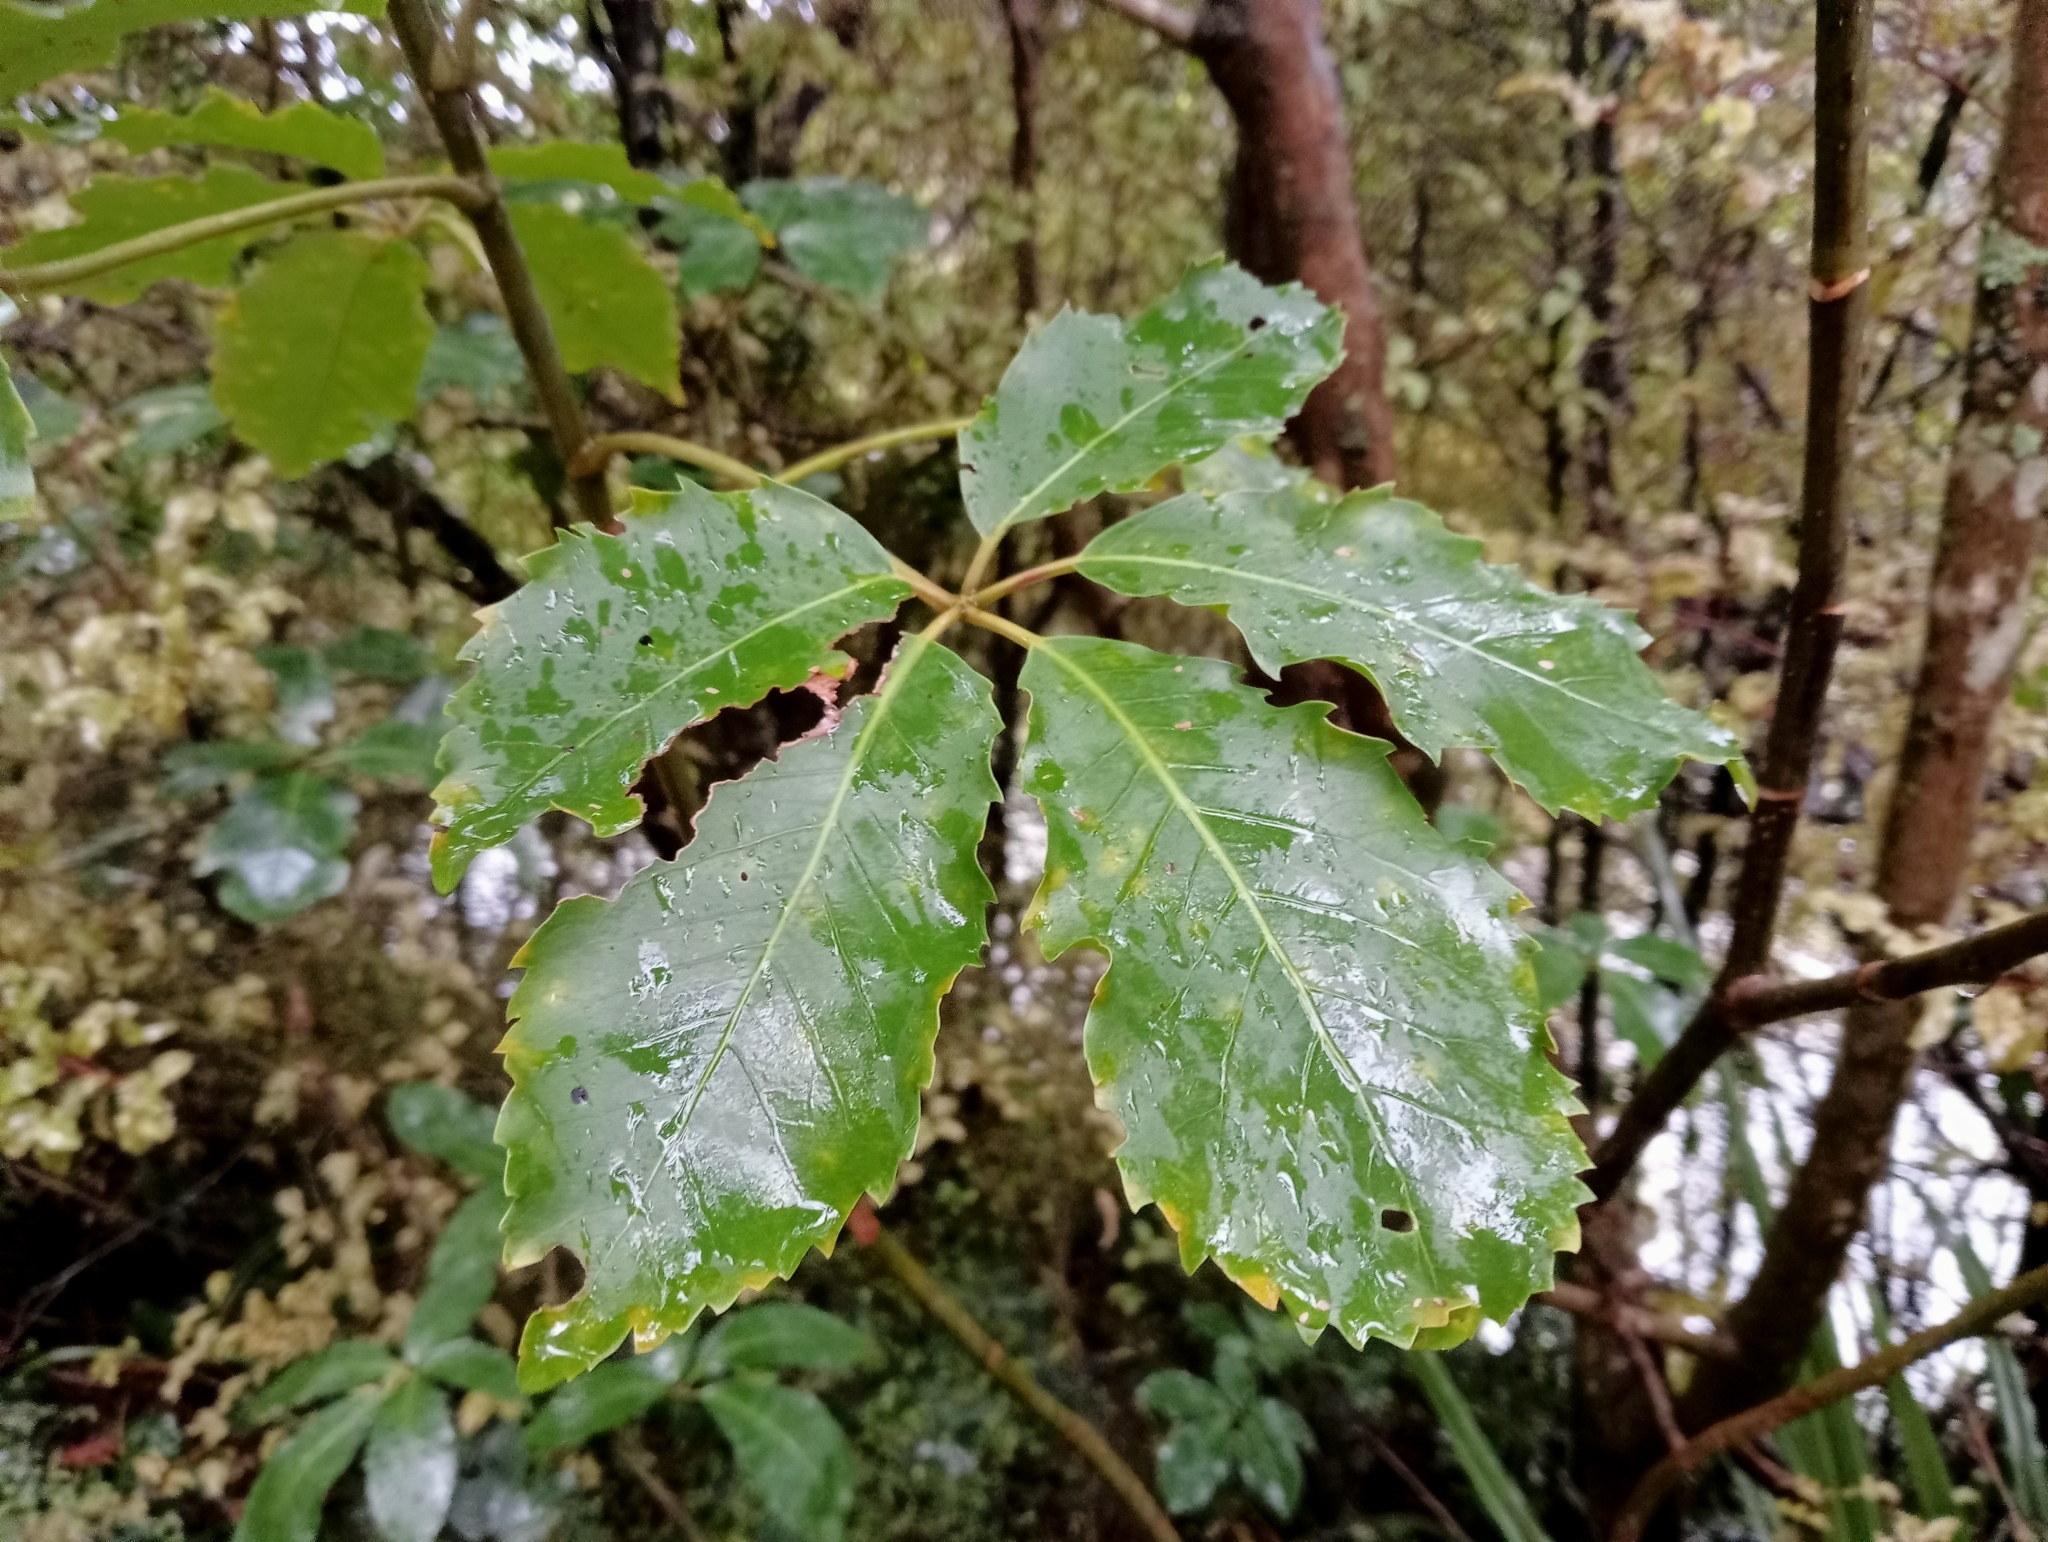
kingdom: Plantae
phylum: Tracheophyta
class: Magnoliopsida
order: Apiales
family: Araliaceae
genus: Neopanax
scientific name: Neopanax arboreus
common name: Five-fingers
